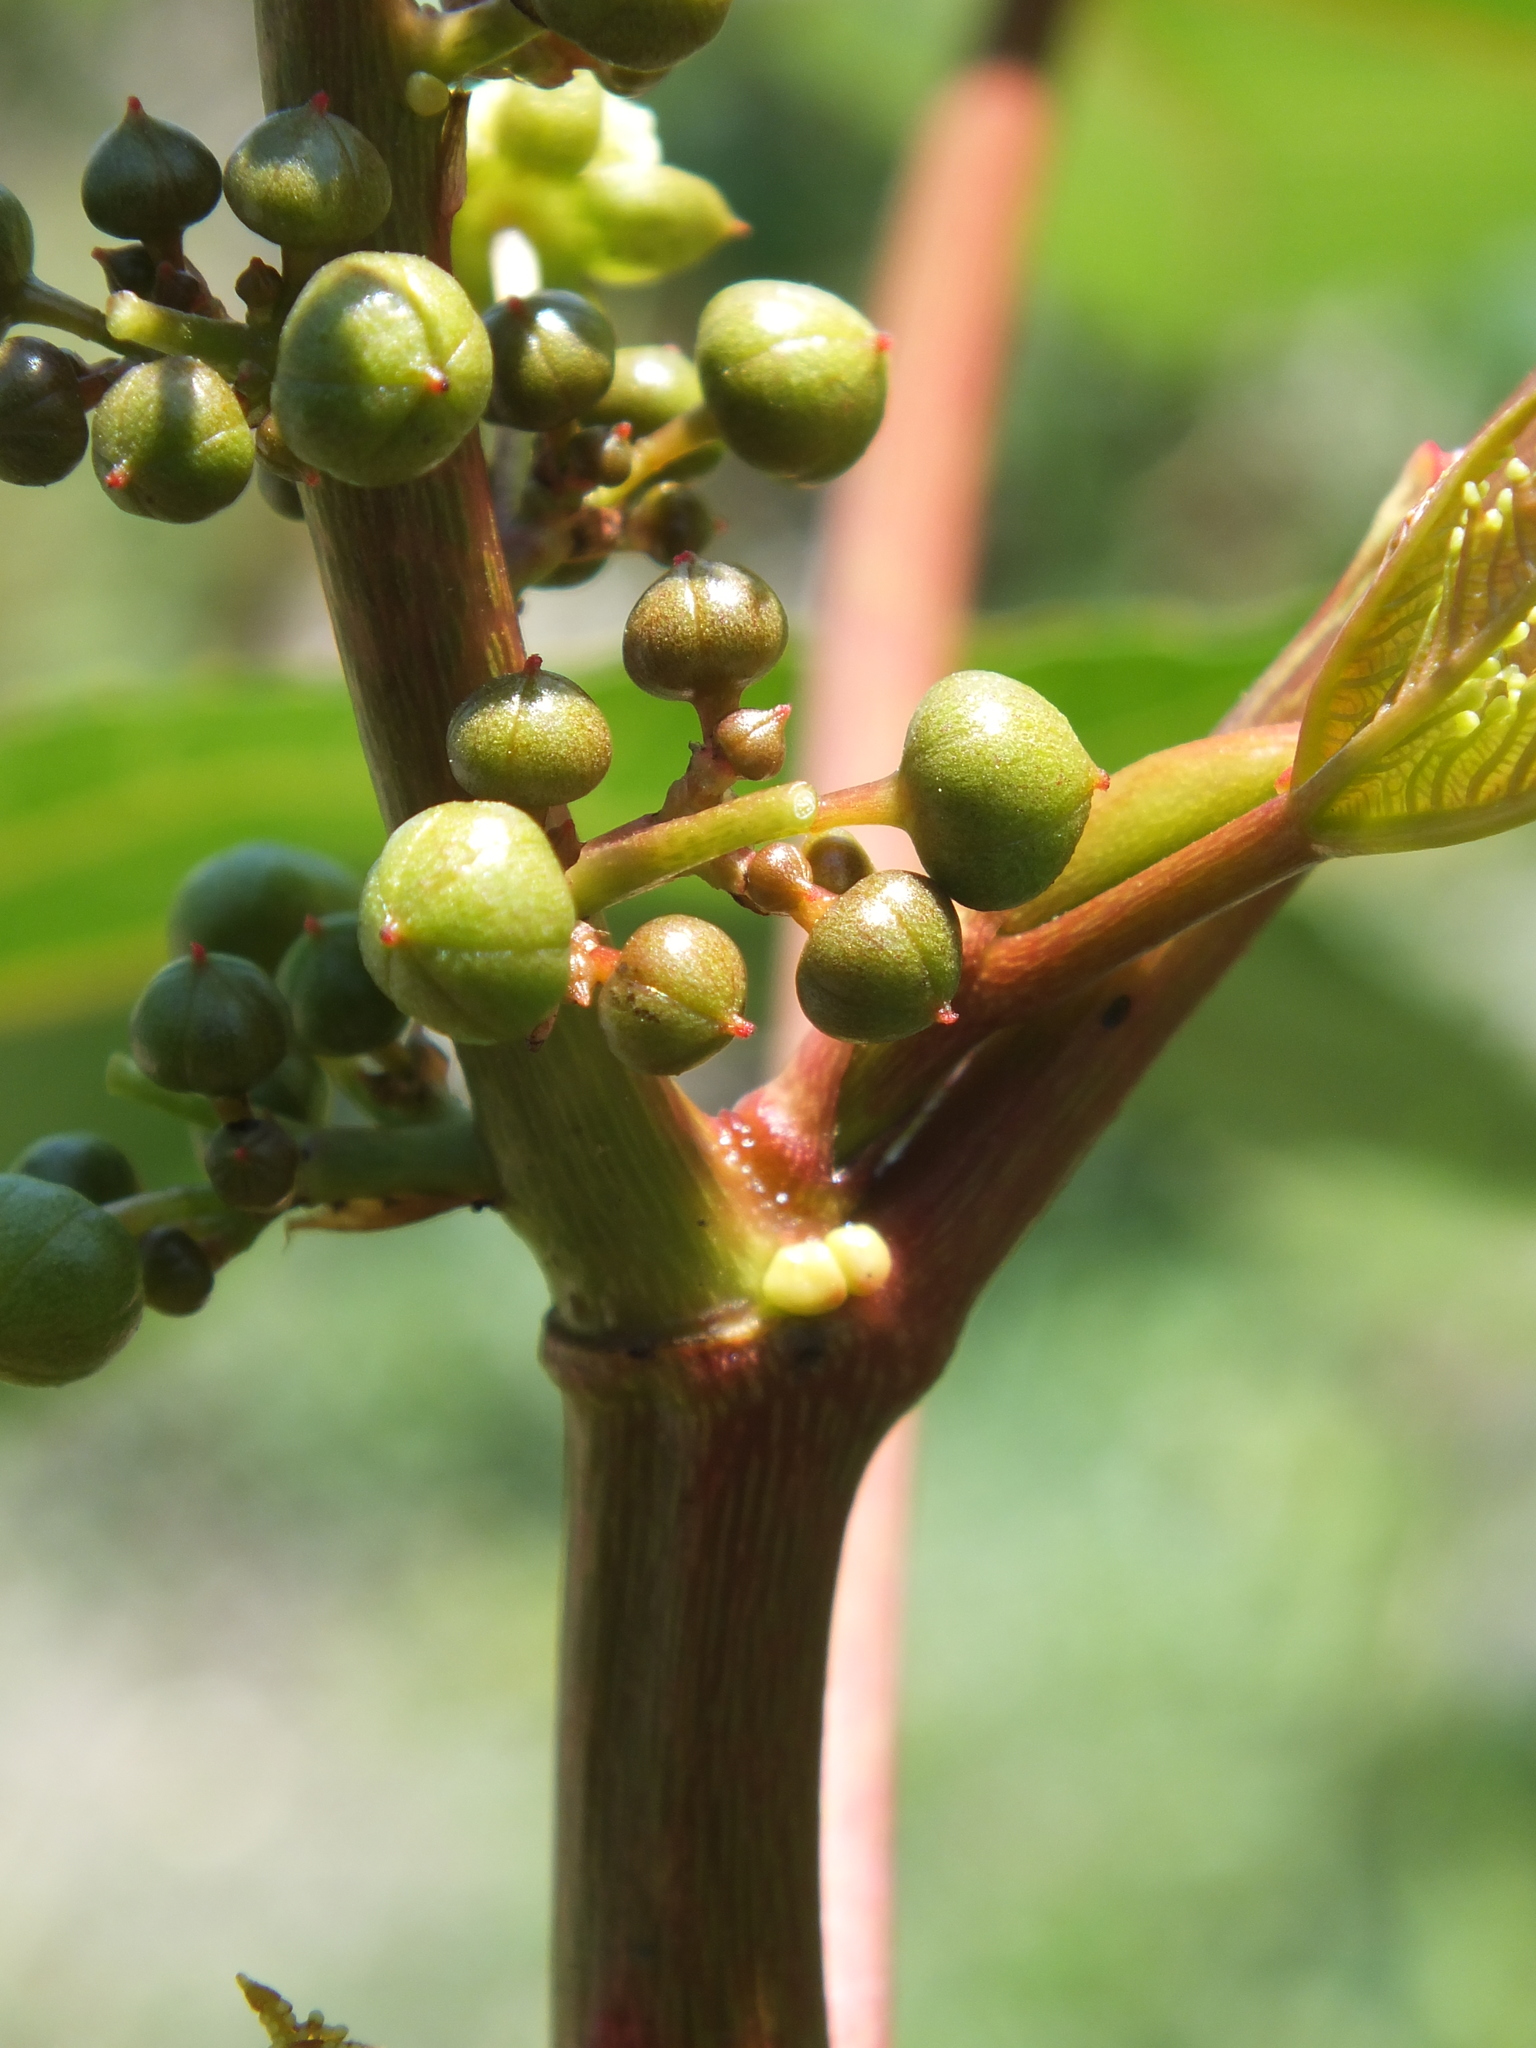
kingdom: Plantae
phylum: Tracheophyta
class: Magnoliopsida
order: Malpighiales
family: Euphorbiaceae
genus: Ricinus
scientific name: Ricinus communis
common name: Castor-oil-plant
